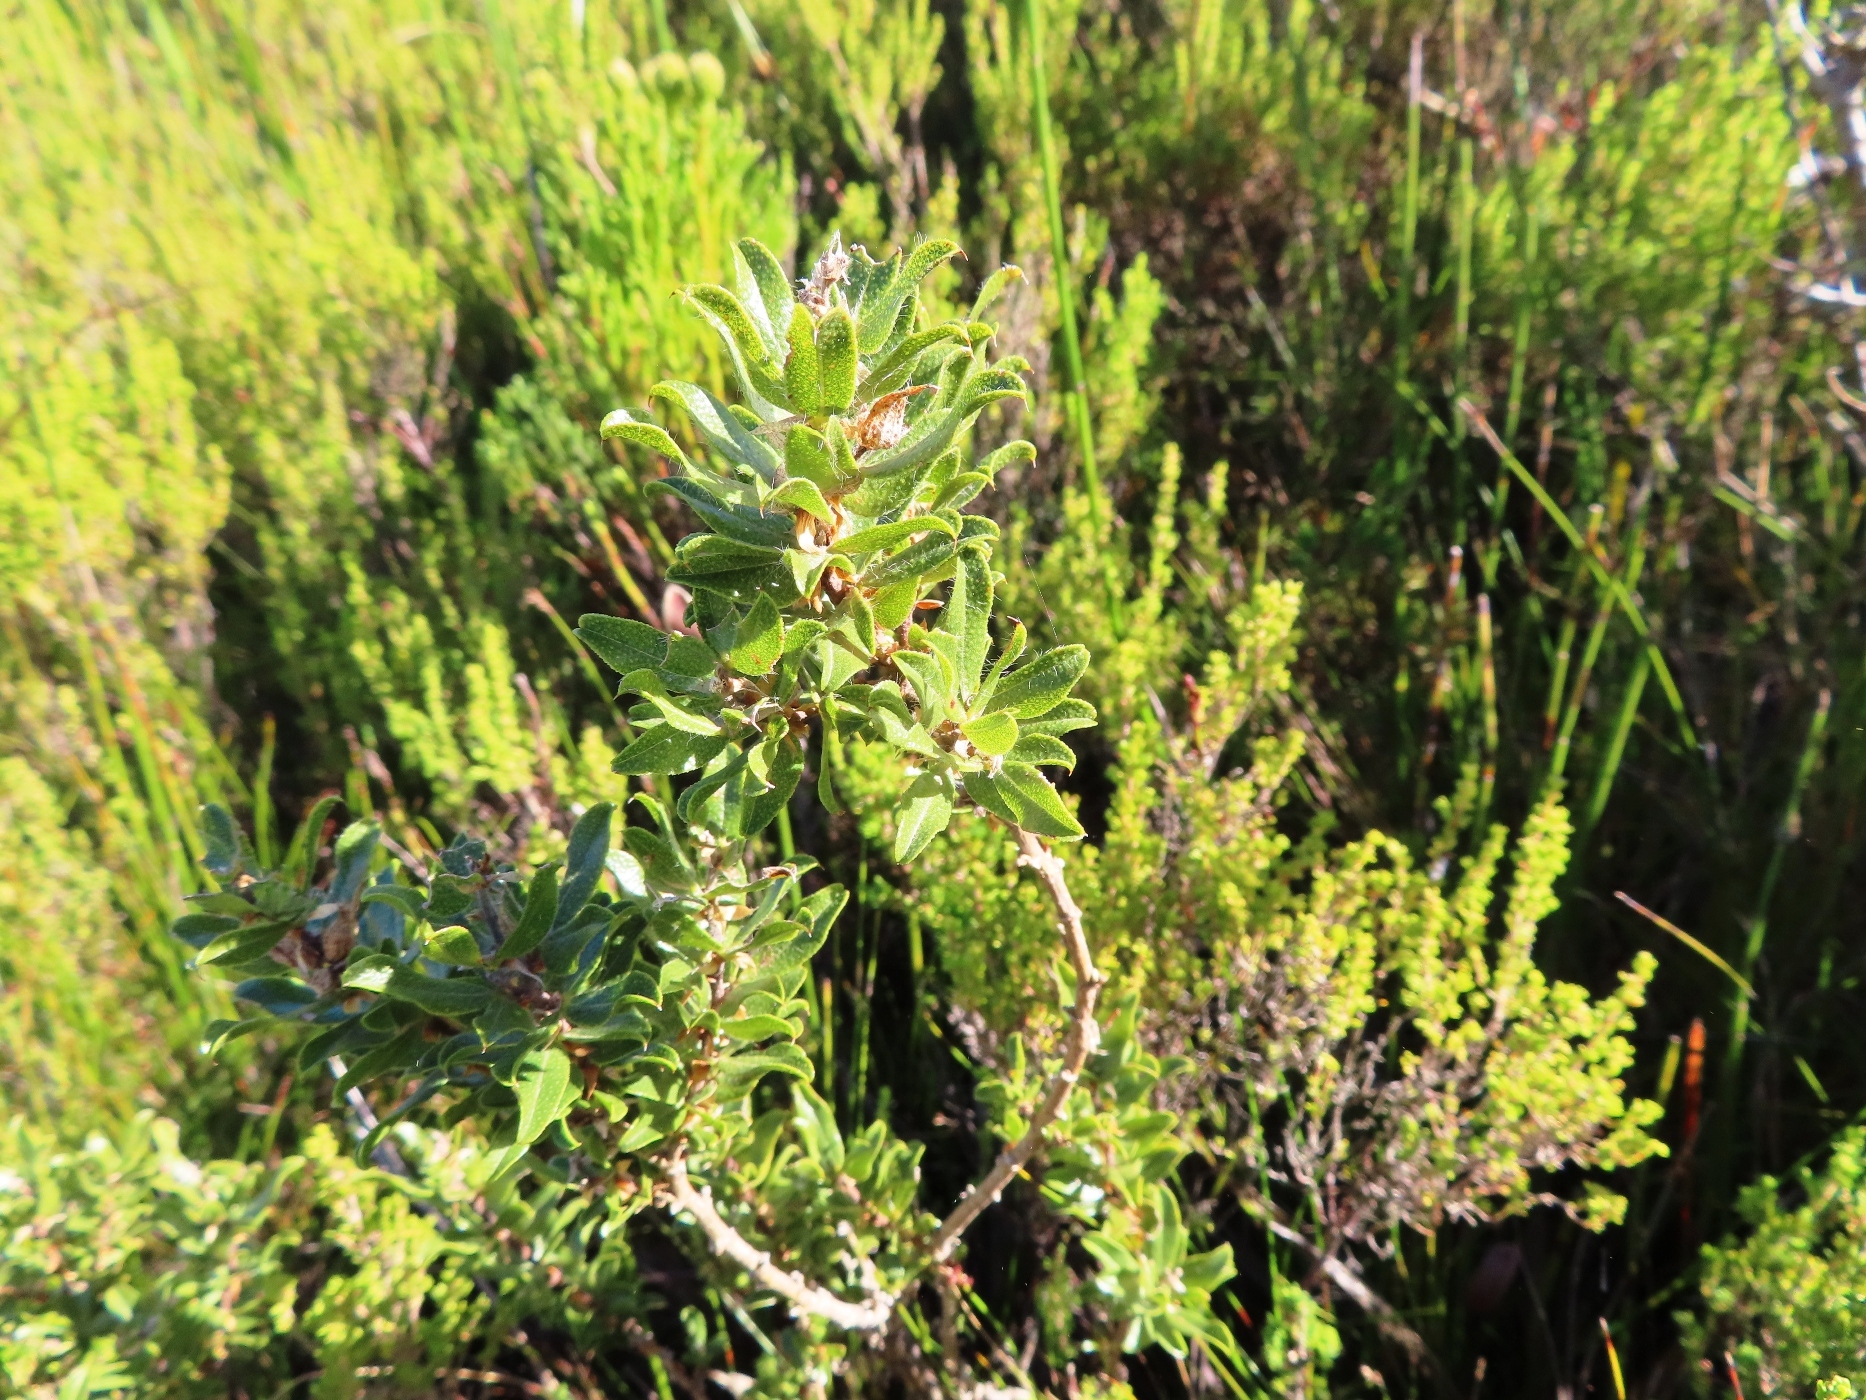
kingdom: Plantae
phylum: Tracheophyta
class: Magnoliopsida
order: Fabales
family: Fabaceae
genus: Psoralea
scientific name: Psoralea obliqua
